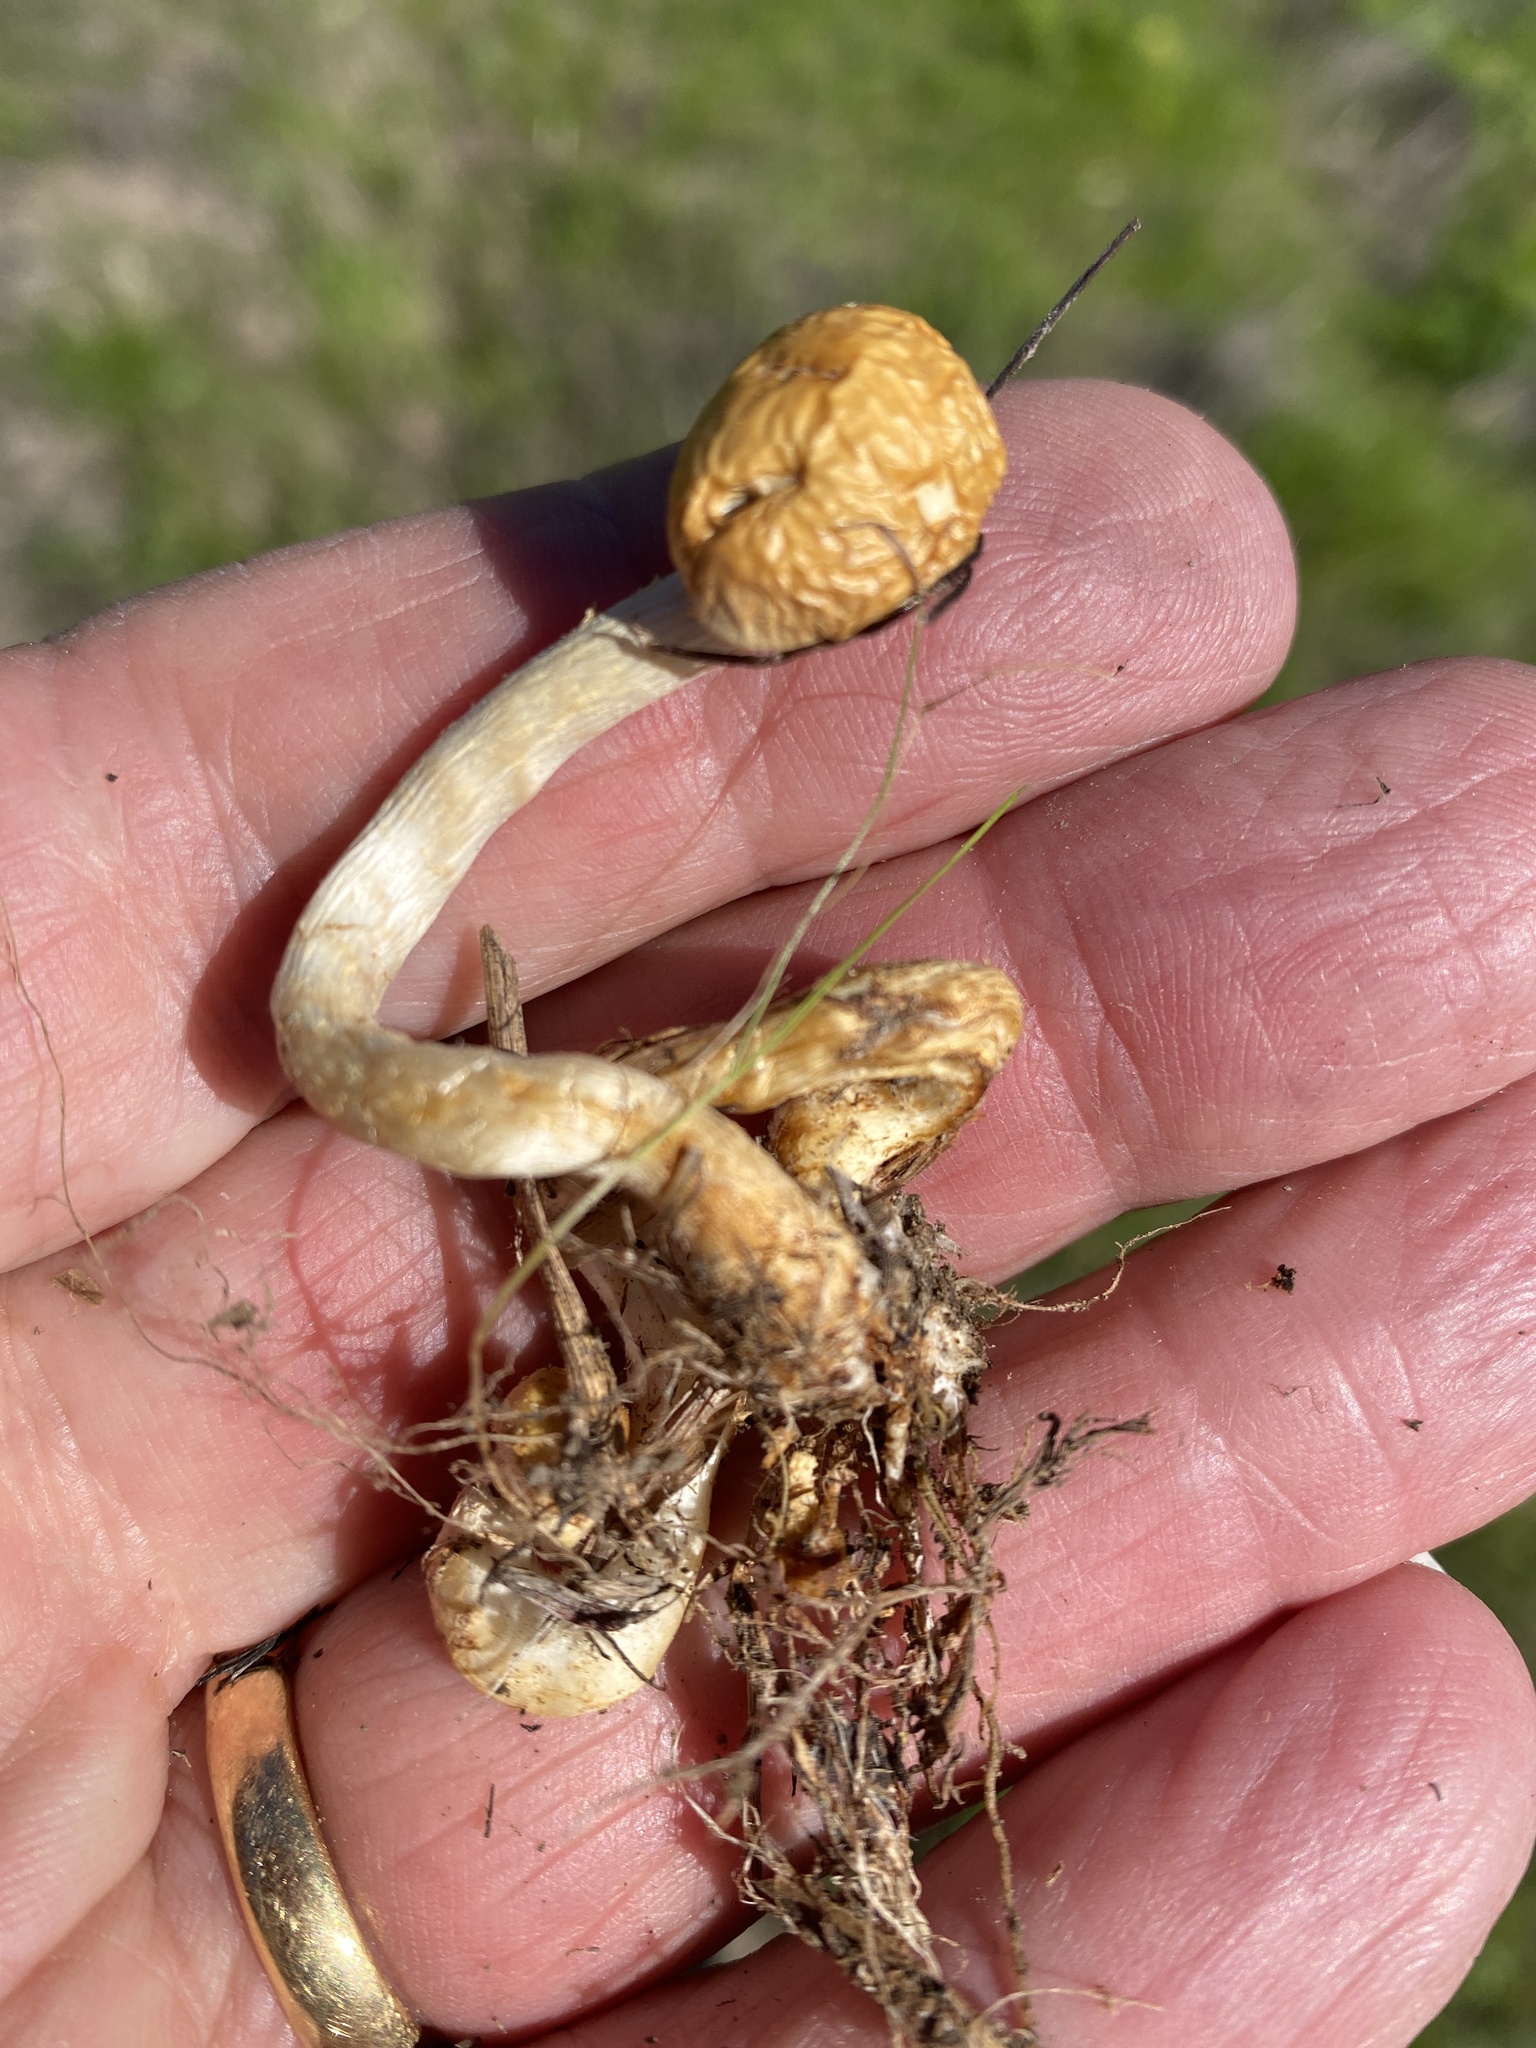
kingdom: Fungi
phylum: Basidiomycota
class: Agaricomycetes
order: Agaricales
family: Strophariaceae
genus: Leratiomyces
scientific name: Leratiomyces percevalii
